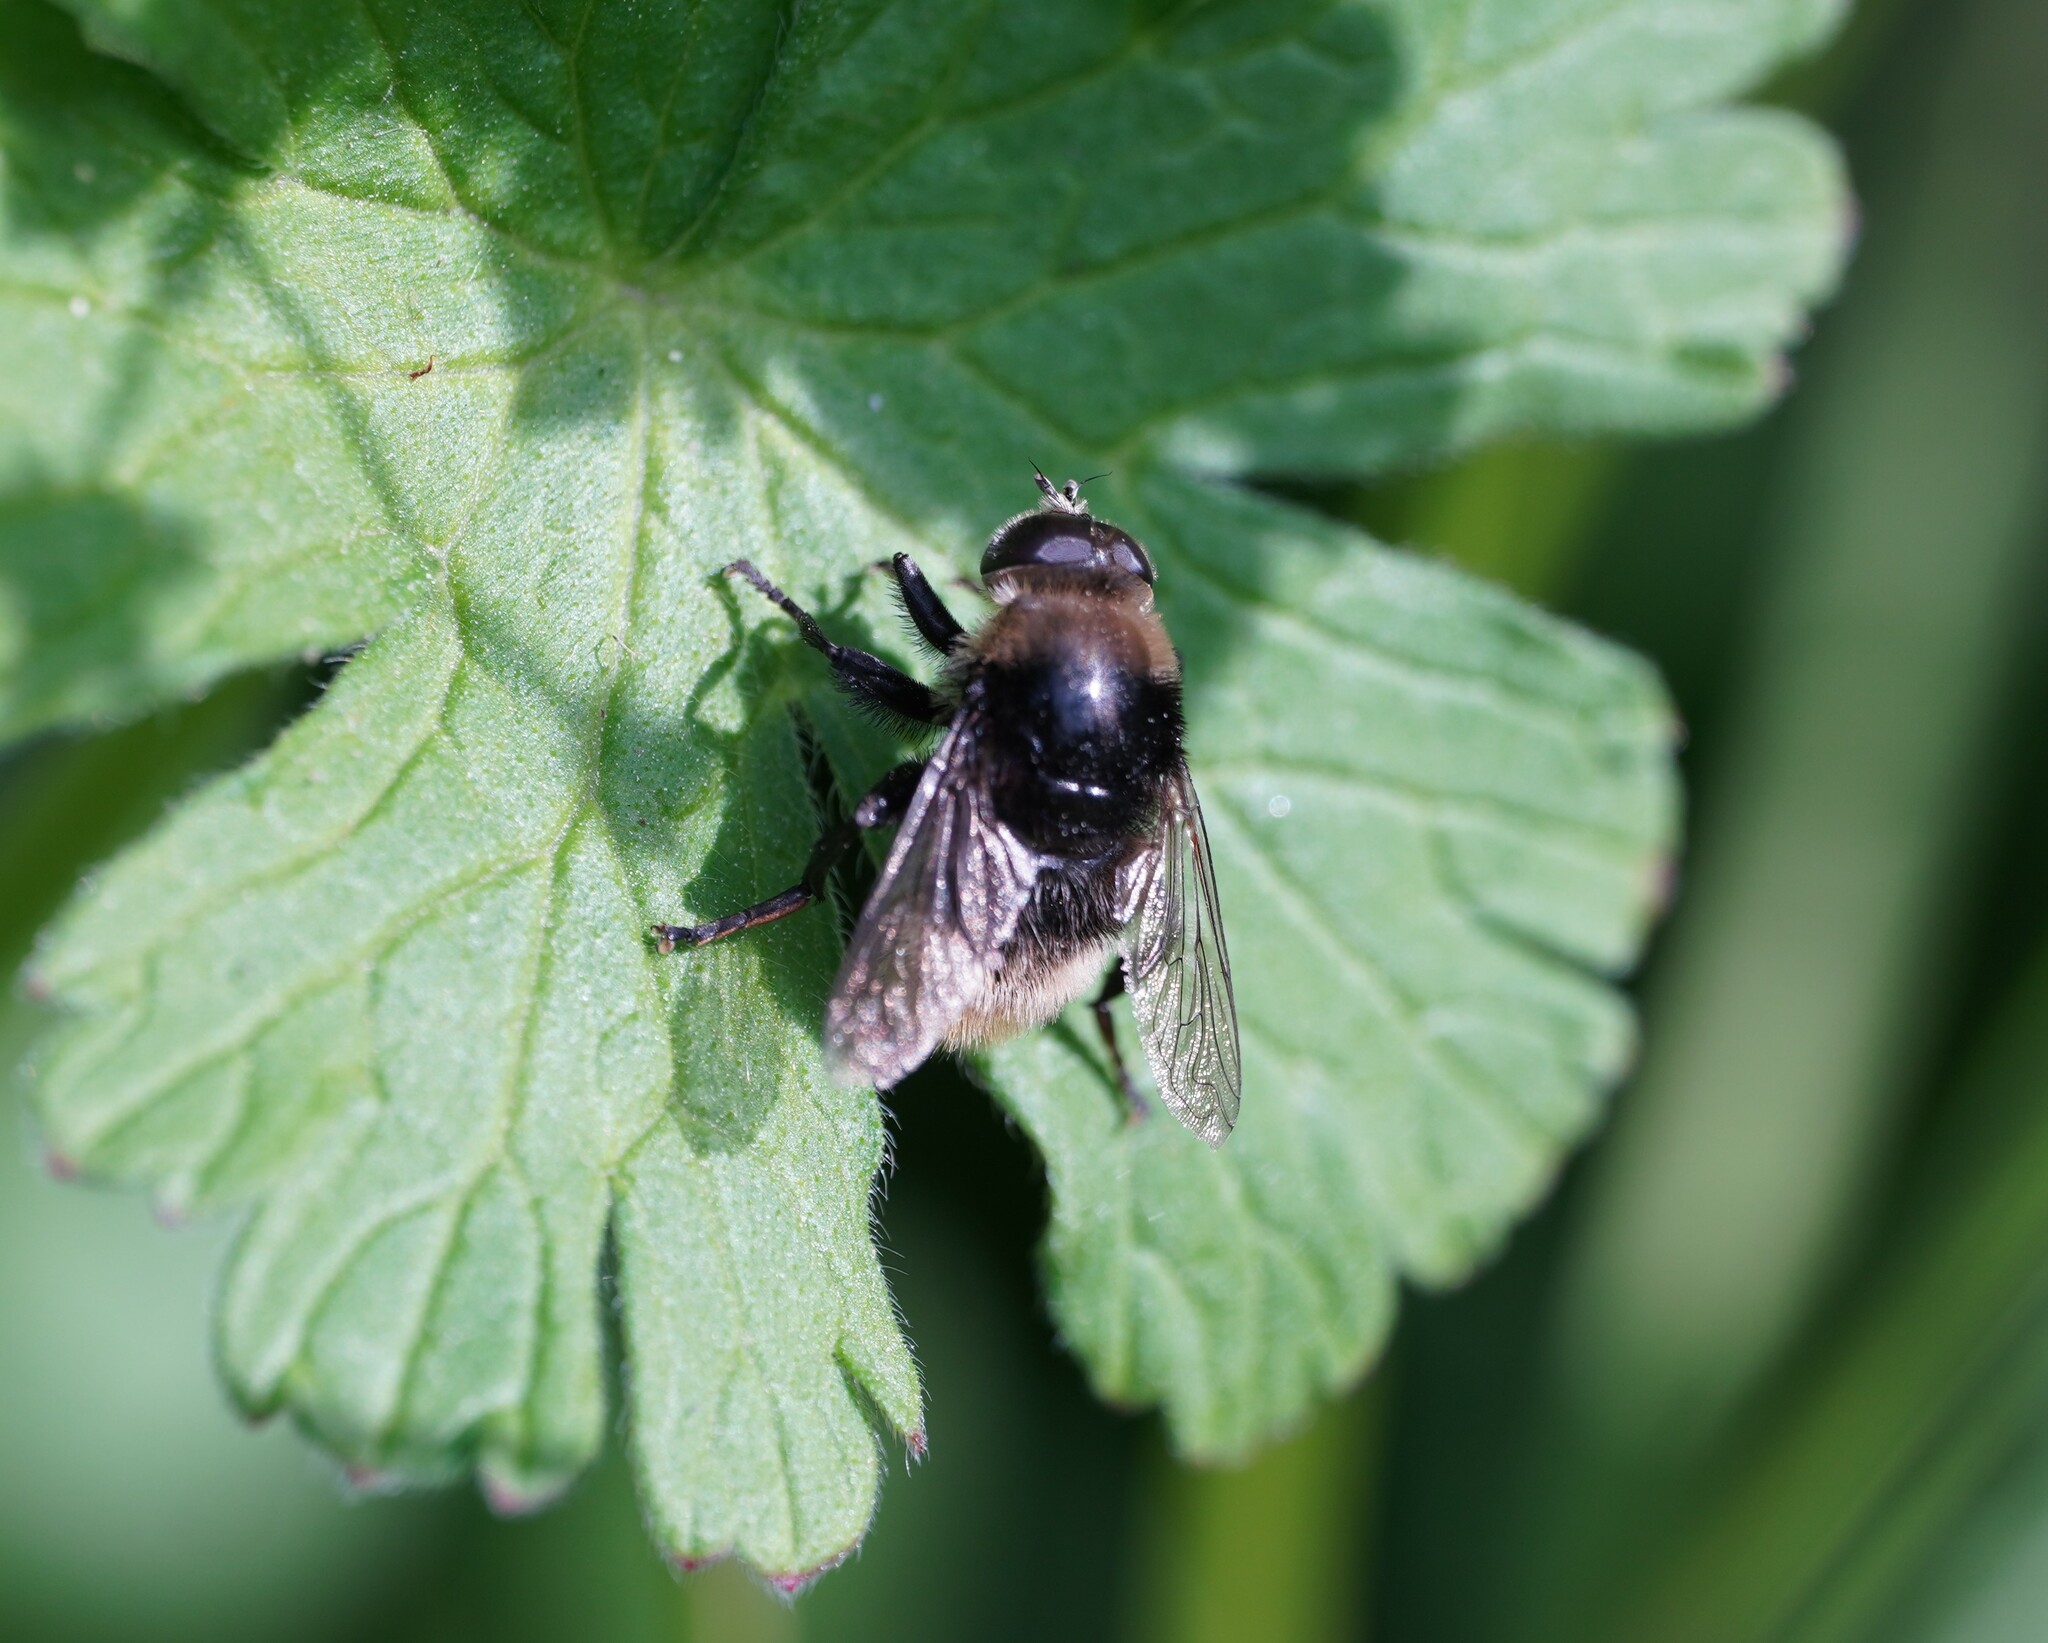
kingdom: Animalia
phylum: Arthropoda
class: Insecta
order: Diptera
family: Syrphidae
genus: Merodon
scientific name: Merodon equestris
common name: Greater bulb-fly
